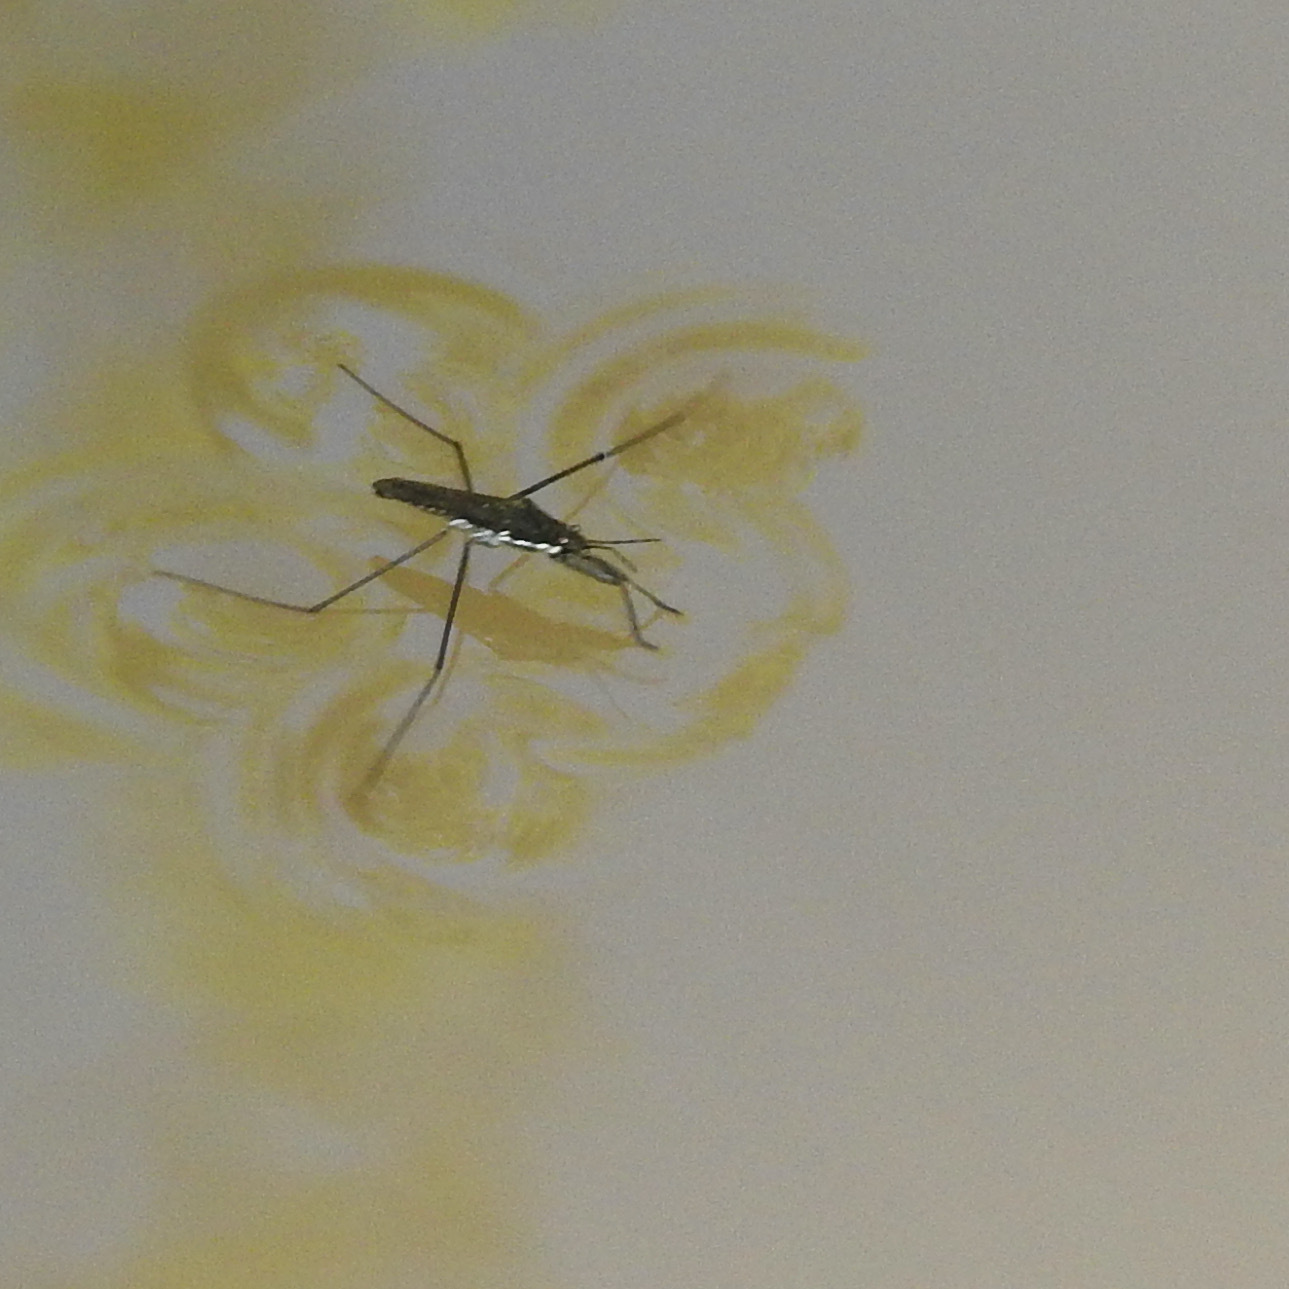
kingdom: Animalia
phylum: Arthropoda
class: Insecta
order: Hemiptera
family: Gerridae
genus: Aquarius
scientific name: Aquarius remigis
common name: Common water strider
